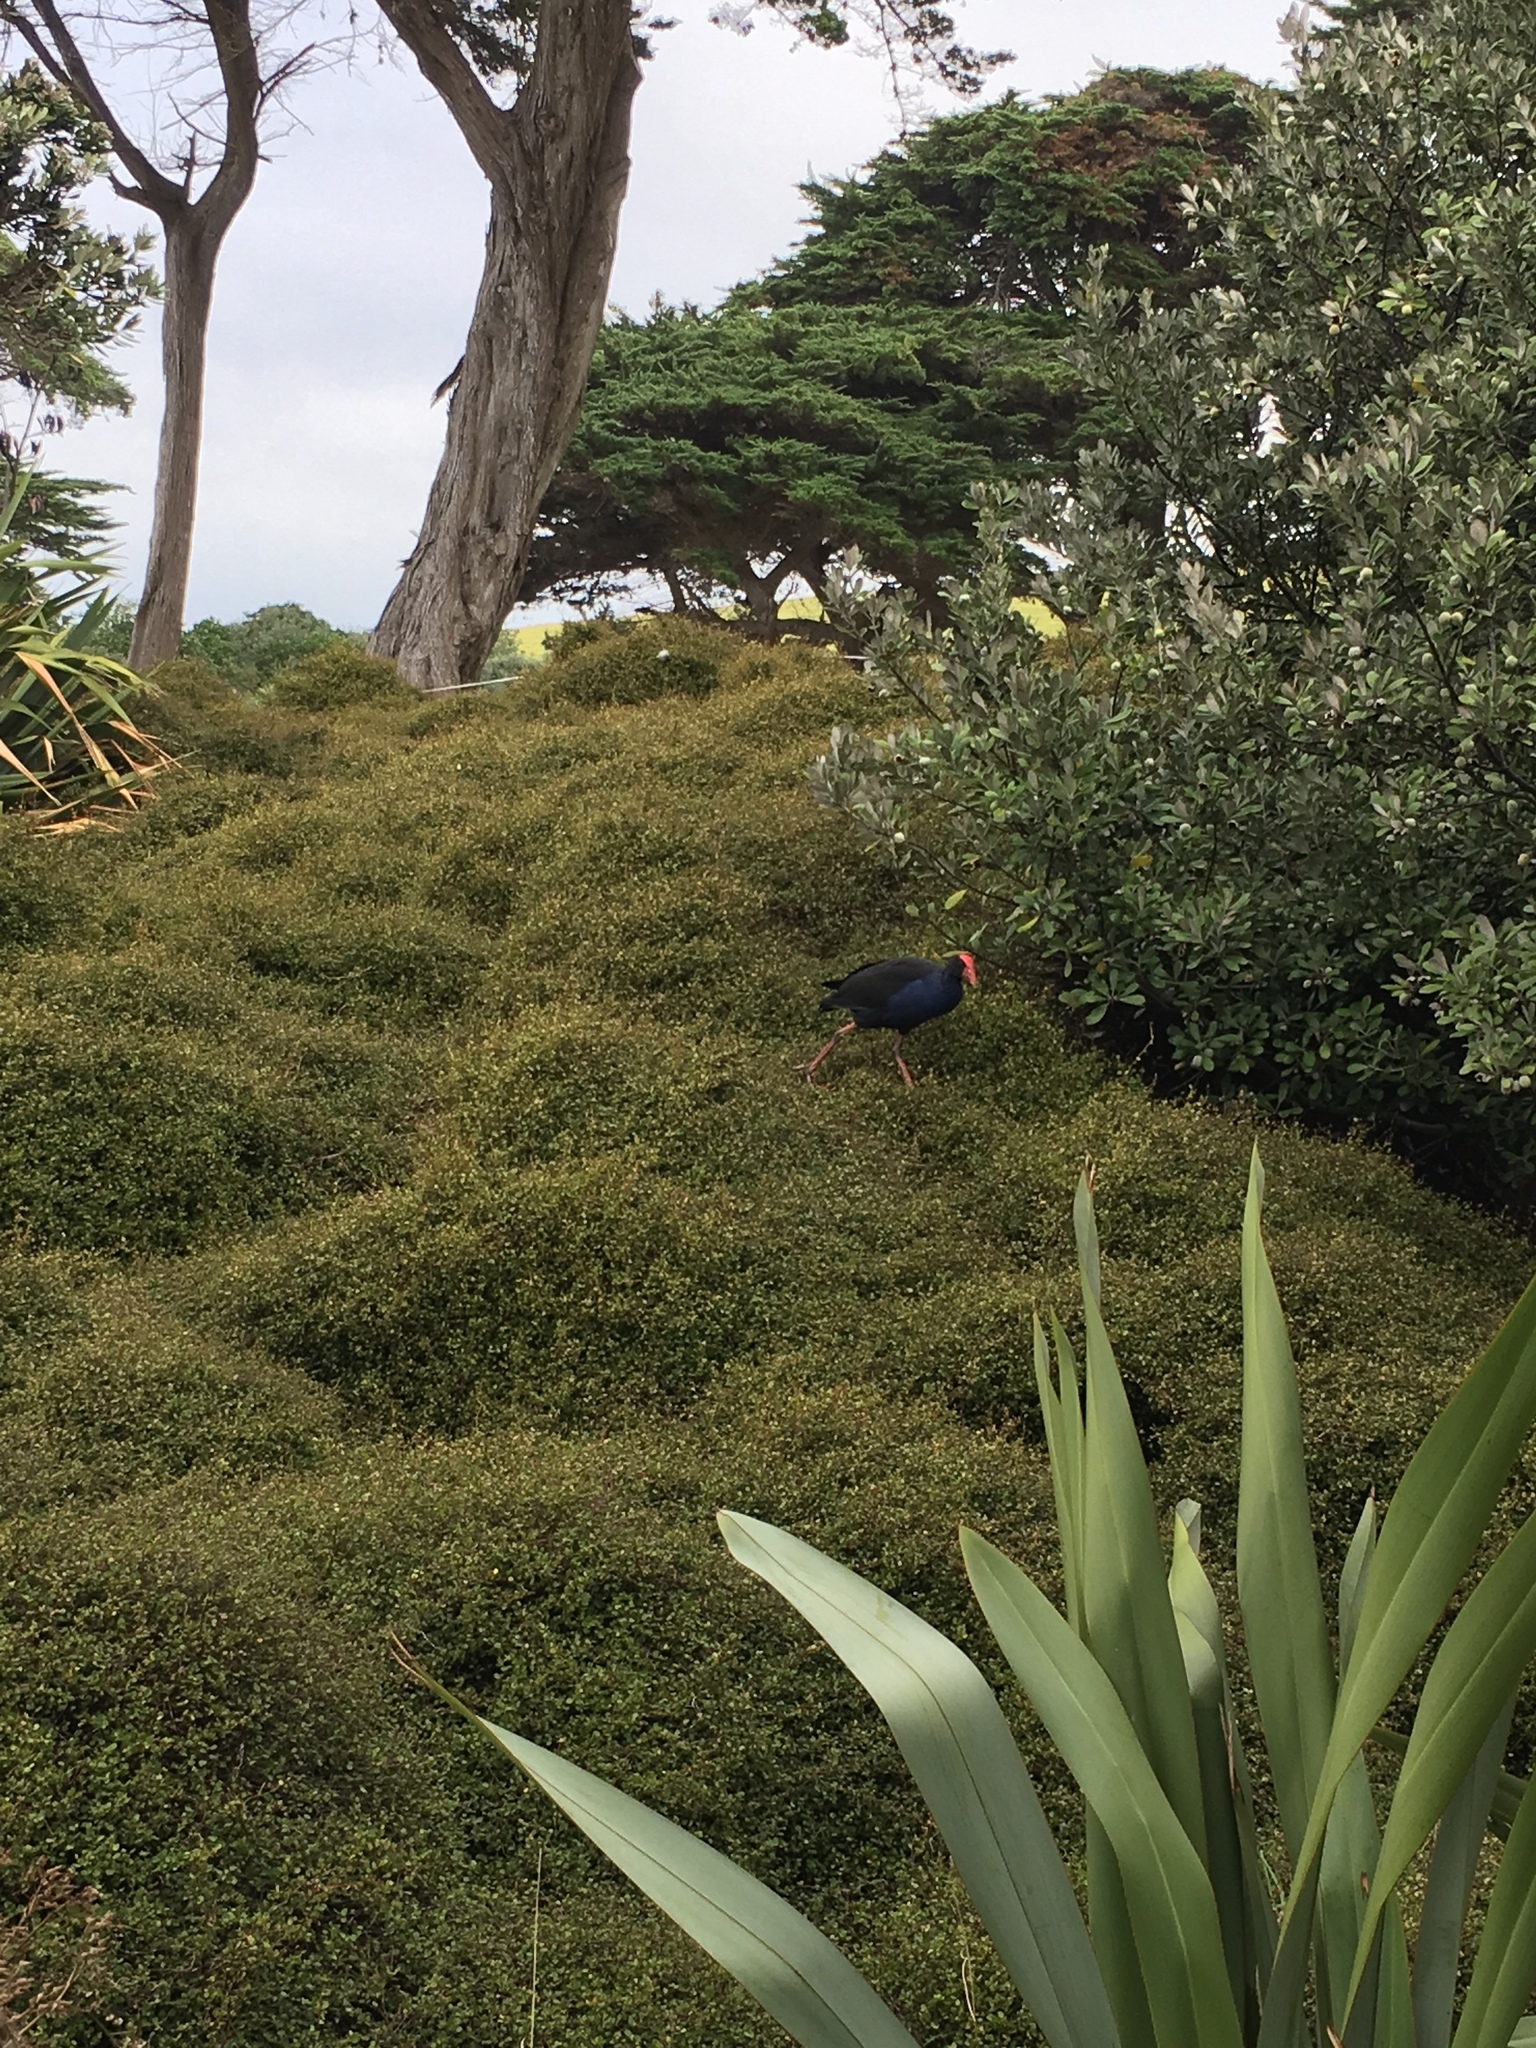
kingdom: Animalia
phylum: Chordata
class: Aves
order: Gruiformes
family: Rallidae
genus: Porphyrio
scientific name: Porphyrio melanotus
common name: Australasian swamphen
